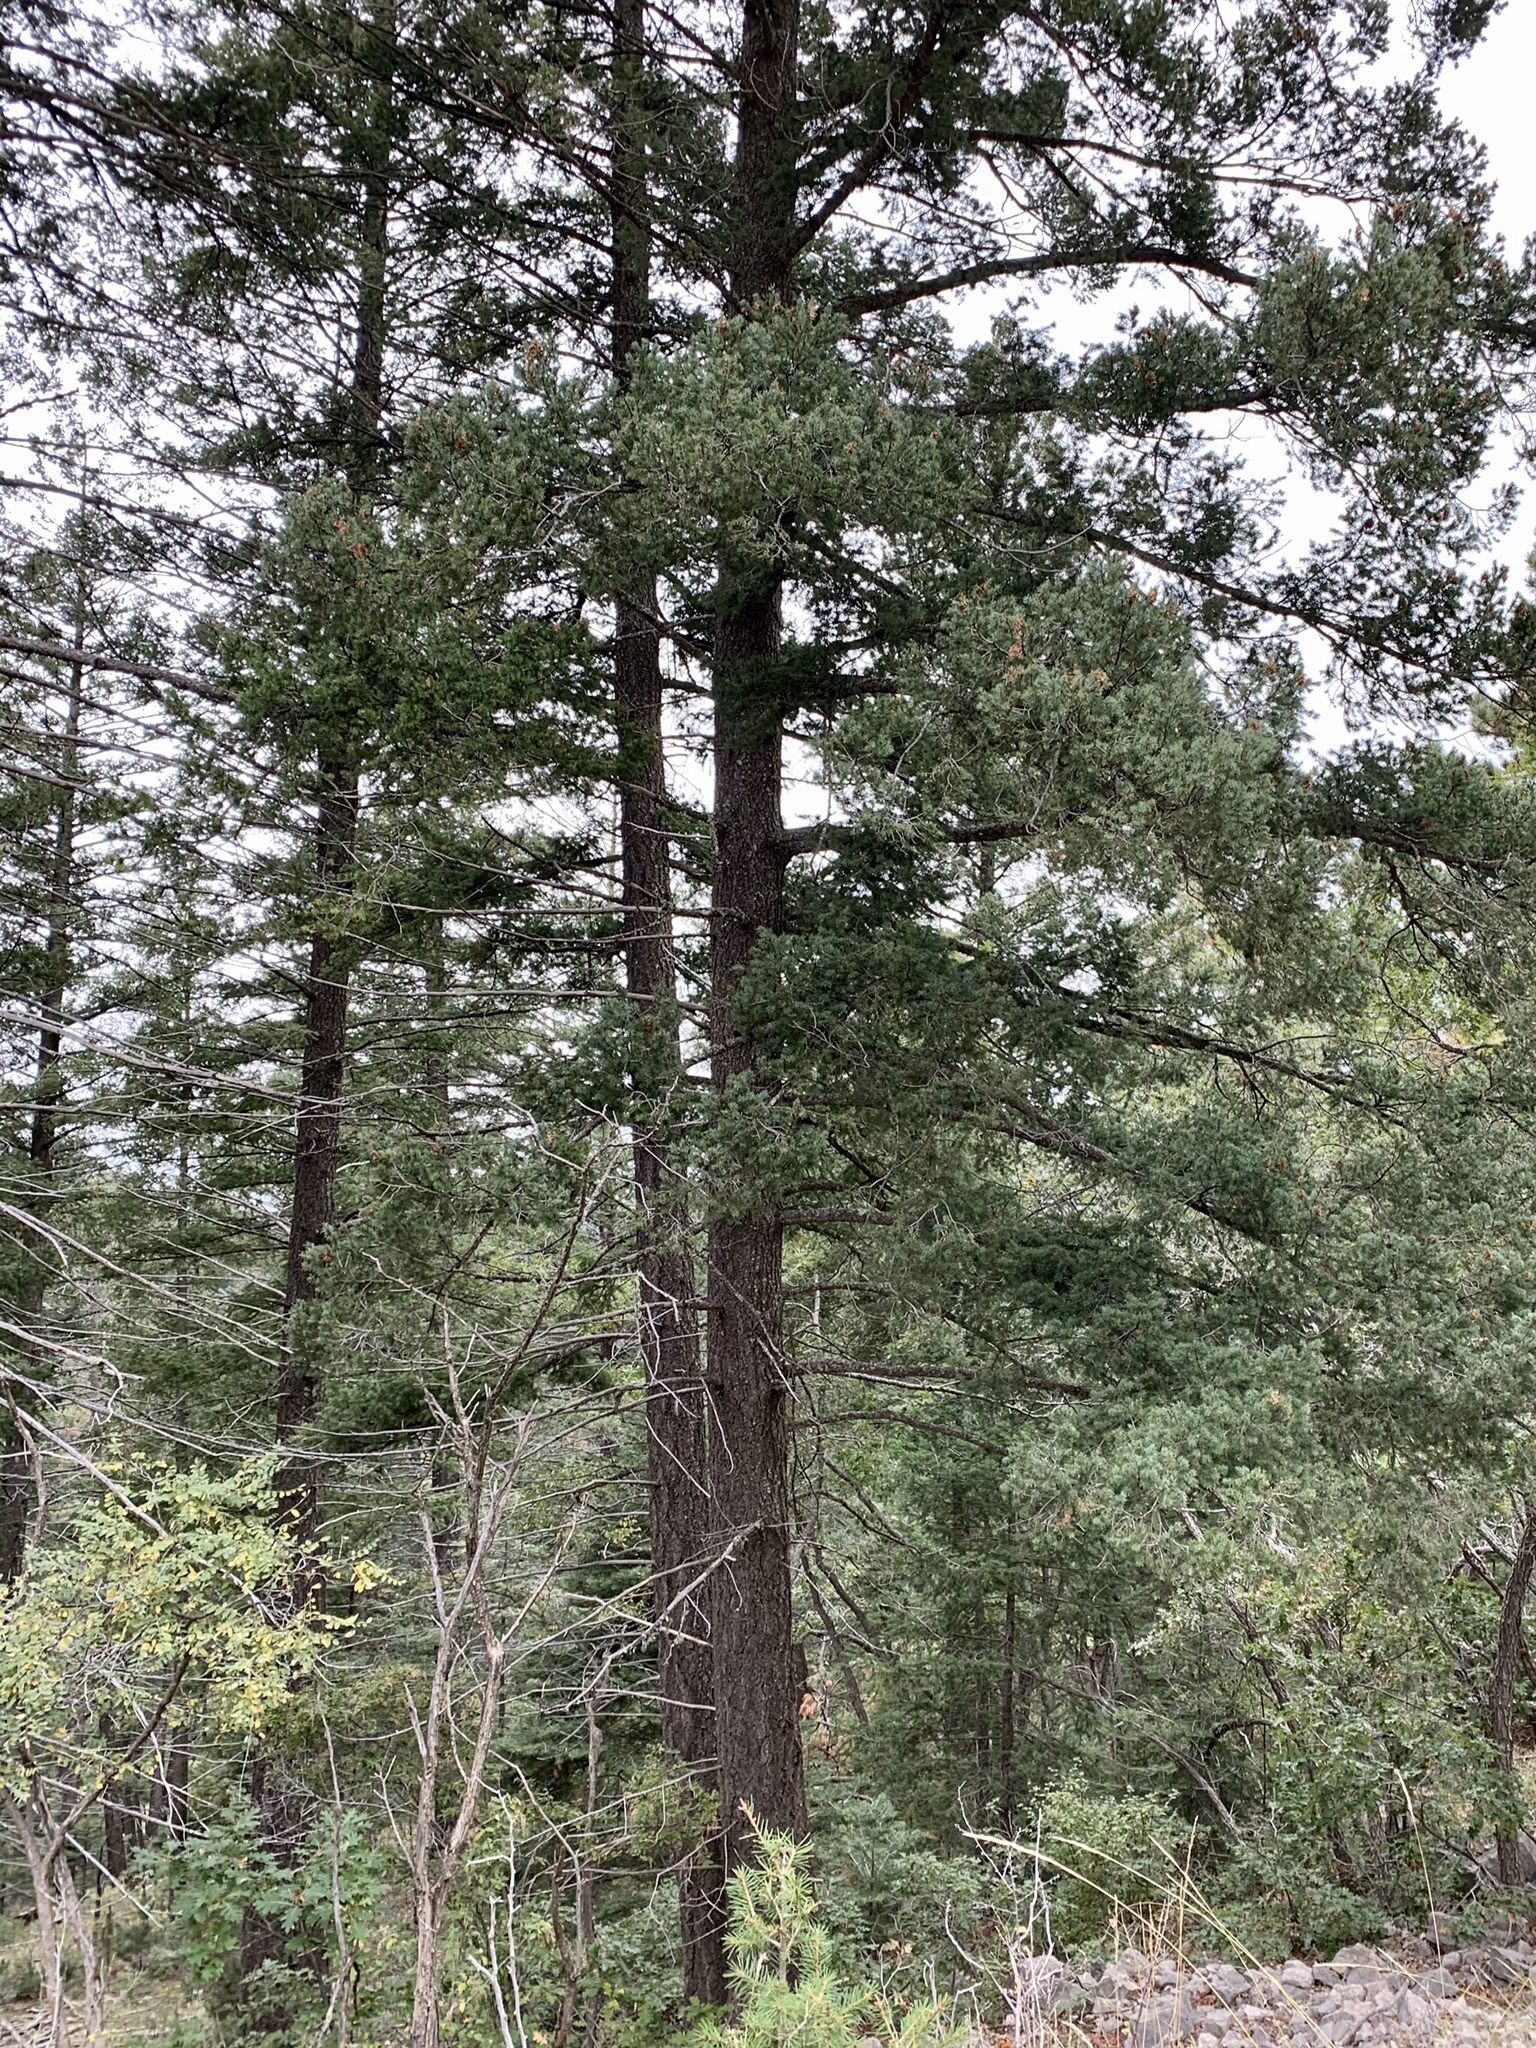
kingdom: Plantae
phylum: Tracheophyta
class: Pinopsida
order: Pinales
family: Pinaceae
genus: Pseudotsuga
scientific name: Pseudotsuga menziesii
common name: Douglas fir
